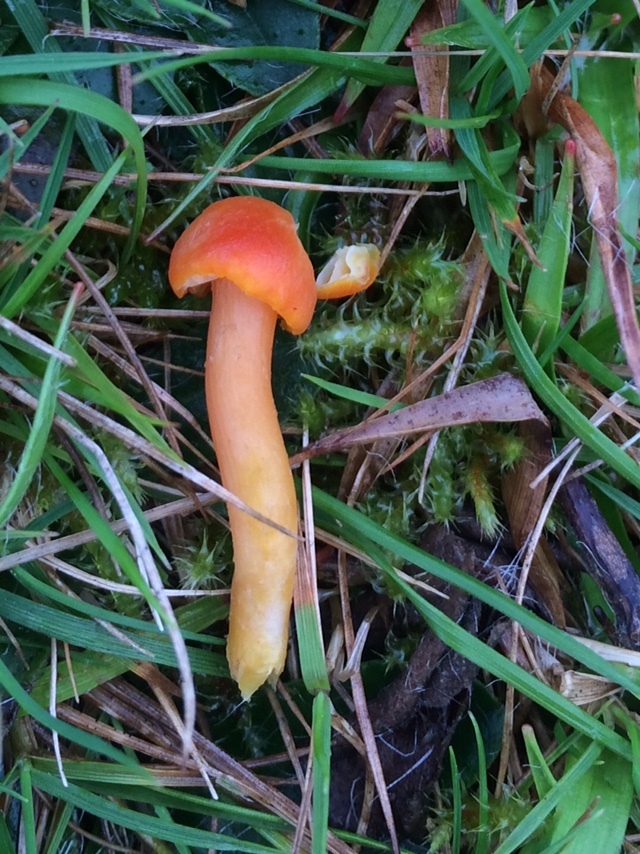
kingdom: Fungi
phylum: Basidiomycota
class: Agaricomycetes
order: Agaricales
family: Hygrophoraceae
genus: Hygrocybe
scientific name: Hygrocybe reidii
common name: Honey waxcap
